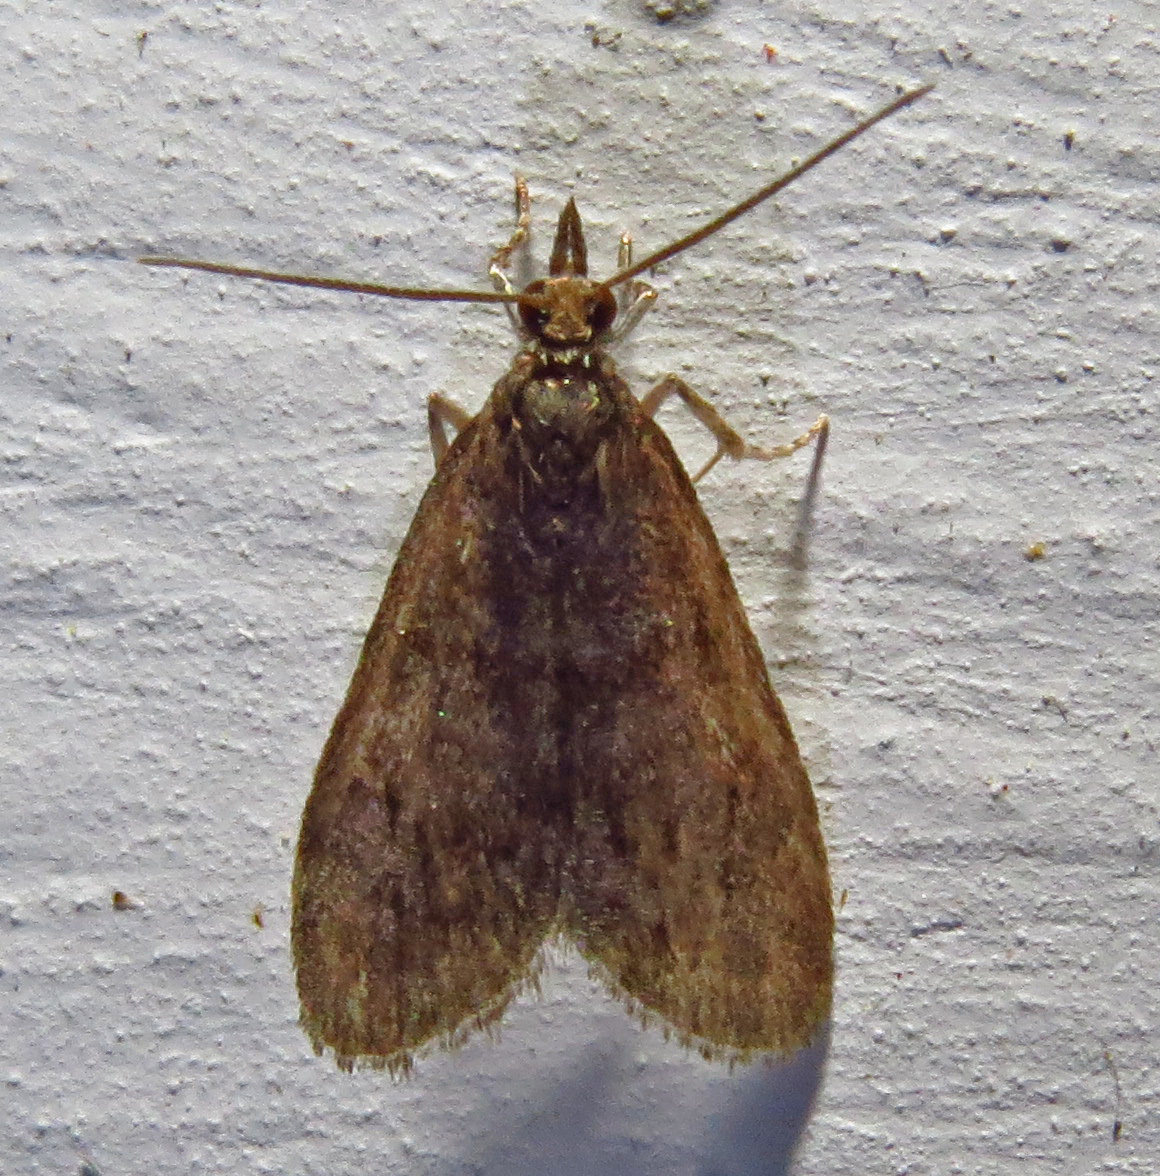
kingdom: Animalia
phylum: Arthropoda
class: Insecta
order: Lepidoptera
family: Crambidae
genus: Scoparia
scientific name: Scoparia penumbralis
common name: Dark brown scoparia moth
